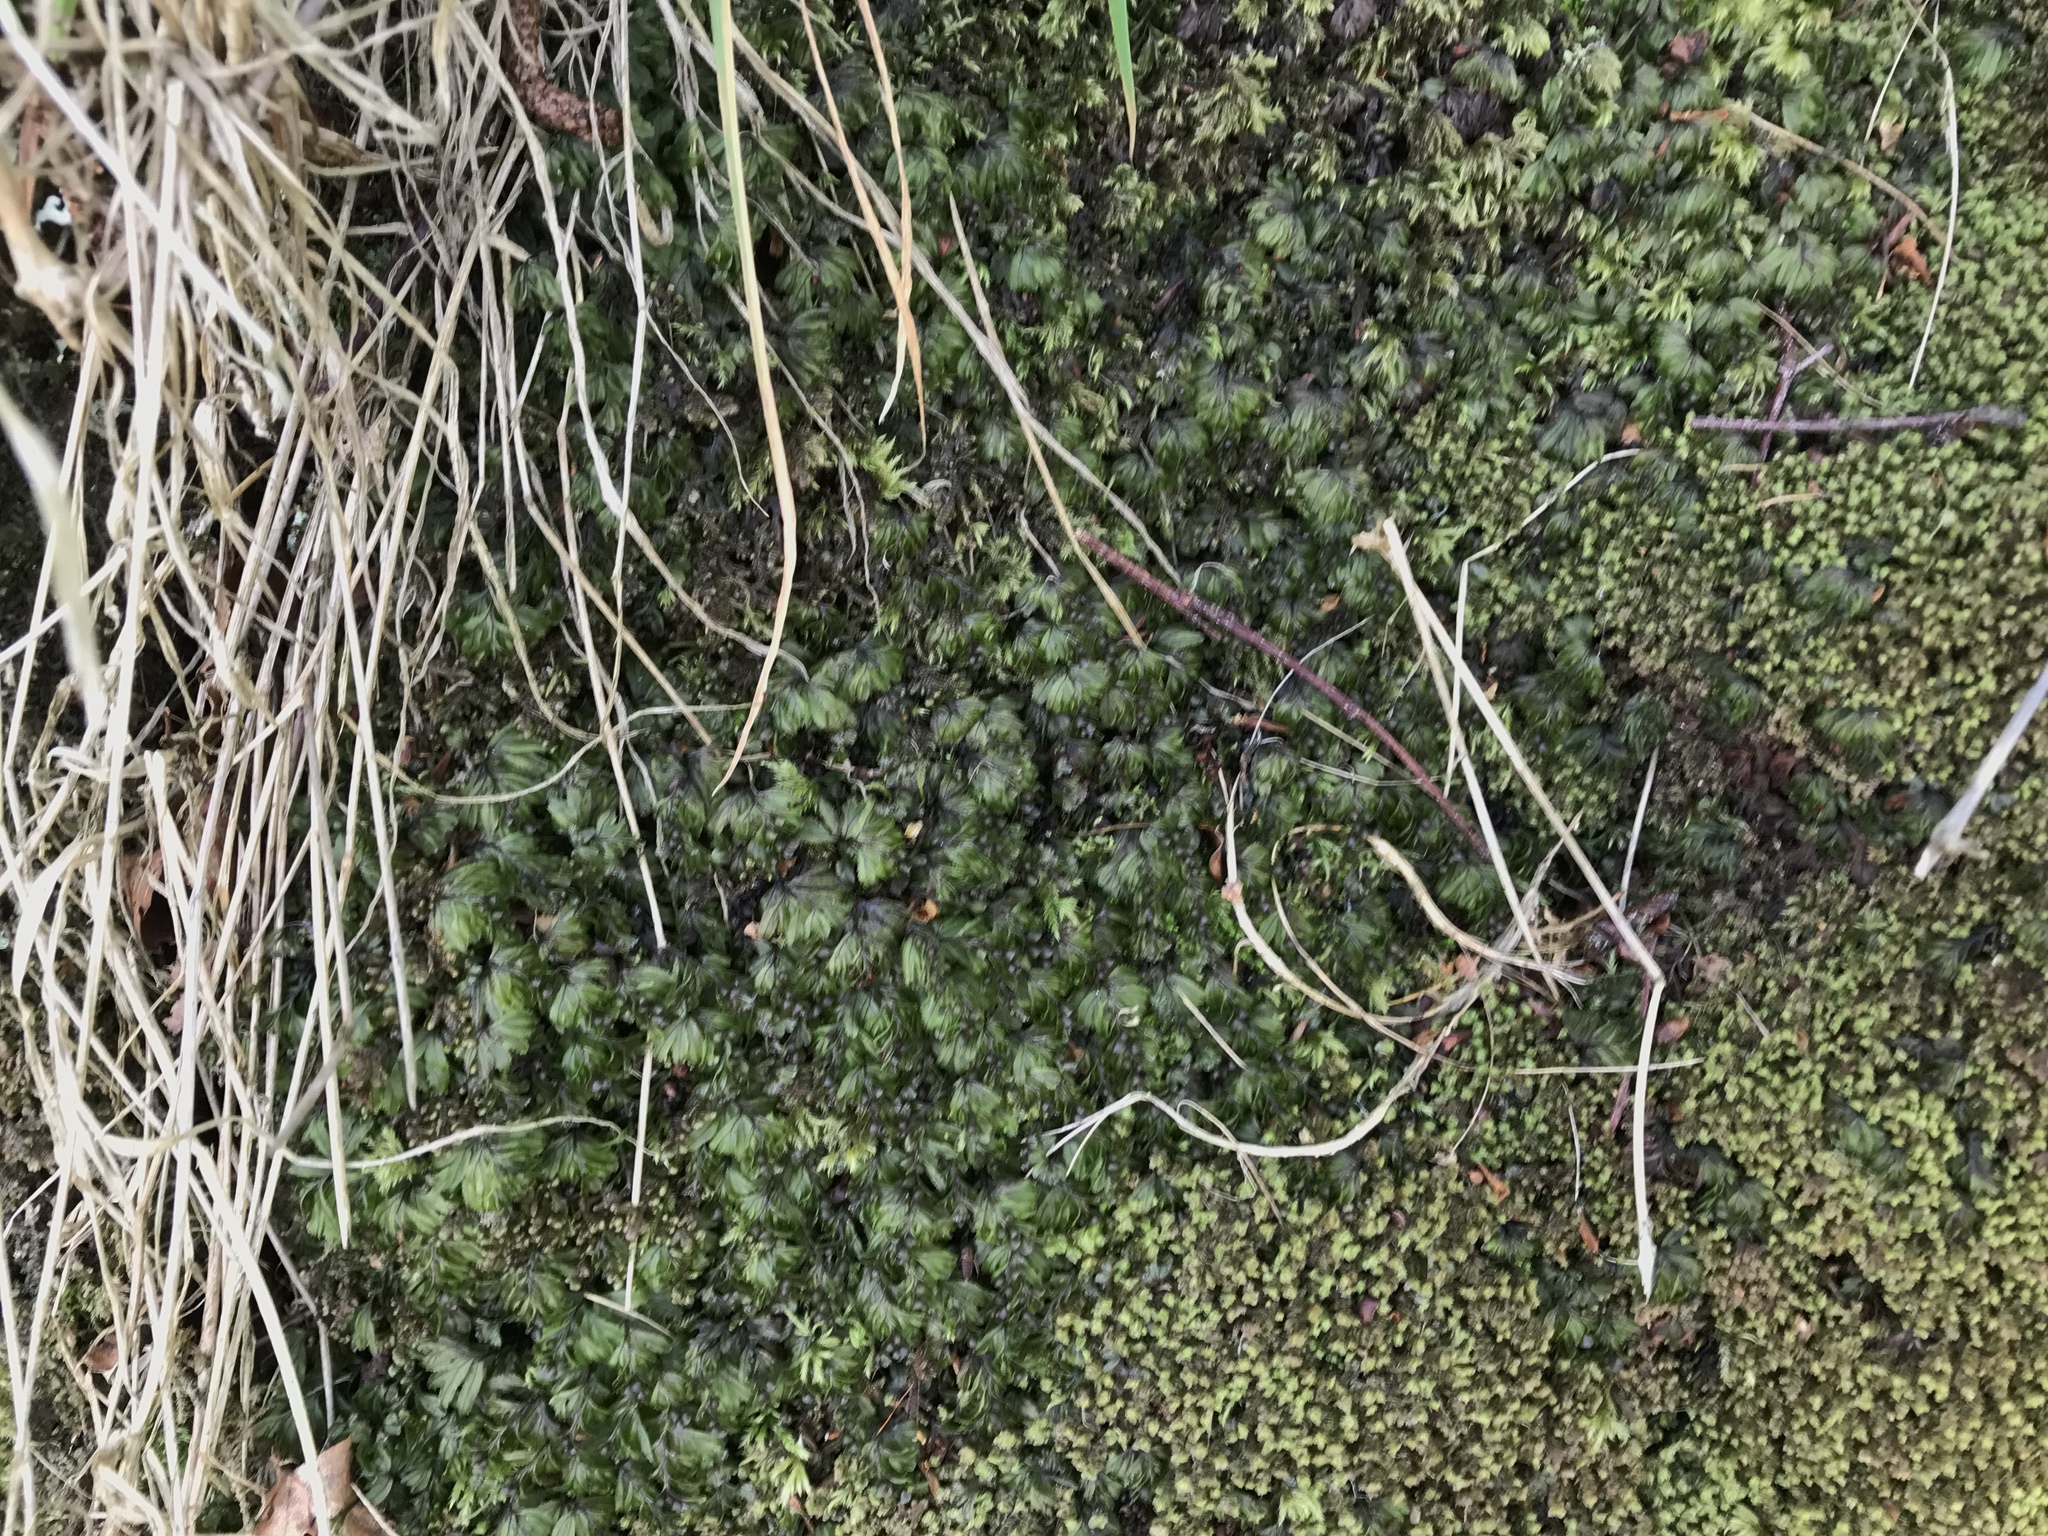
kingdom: Plantae
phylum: Tracheophyta
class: Polypodiopsida
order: Hymenophyllales
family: Hymenophyllaceae
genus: Hymenophyllum
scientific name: Hymenophyllum wilsonii
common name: Wilson's filmy fern
